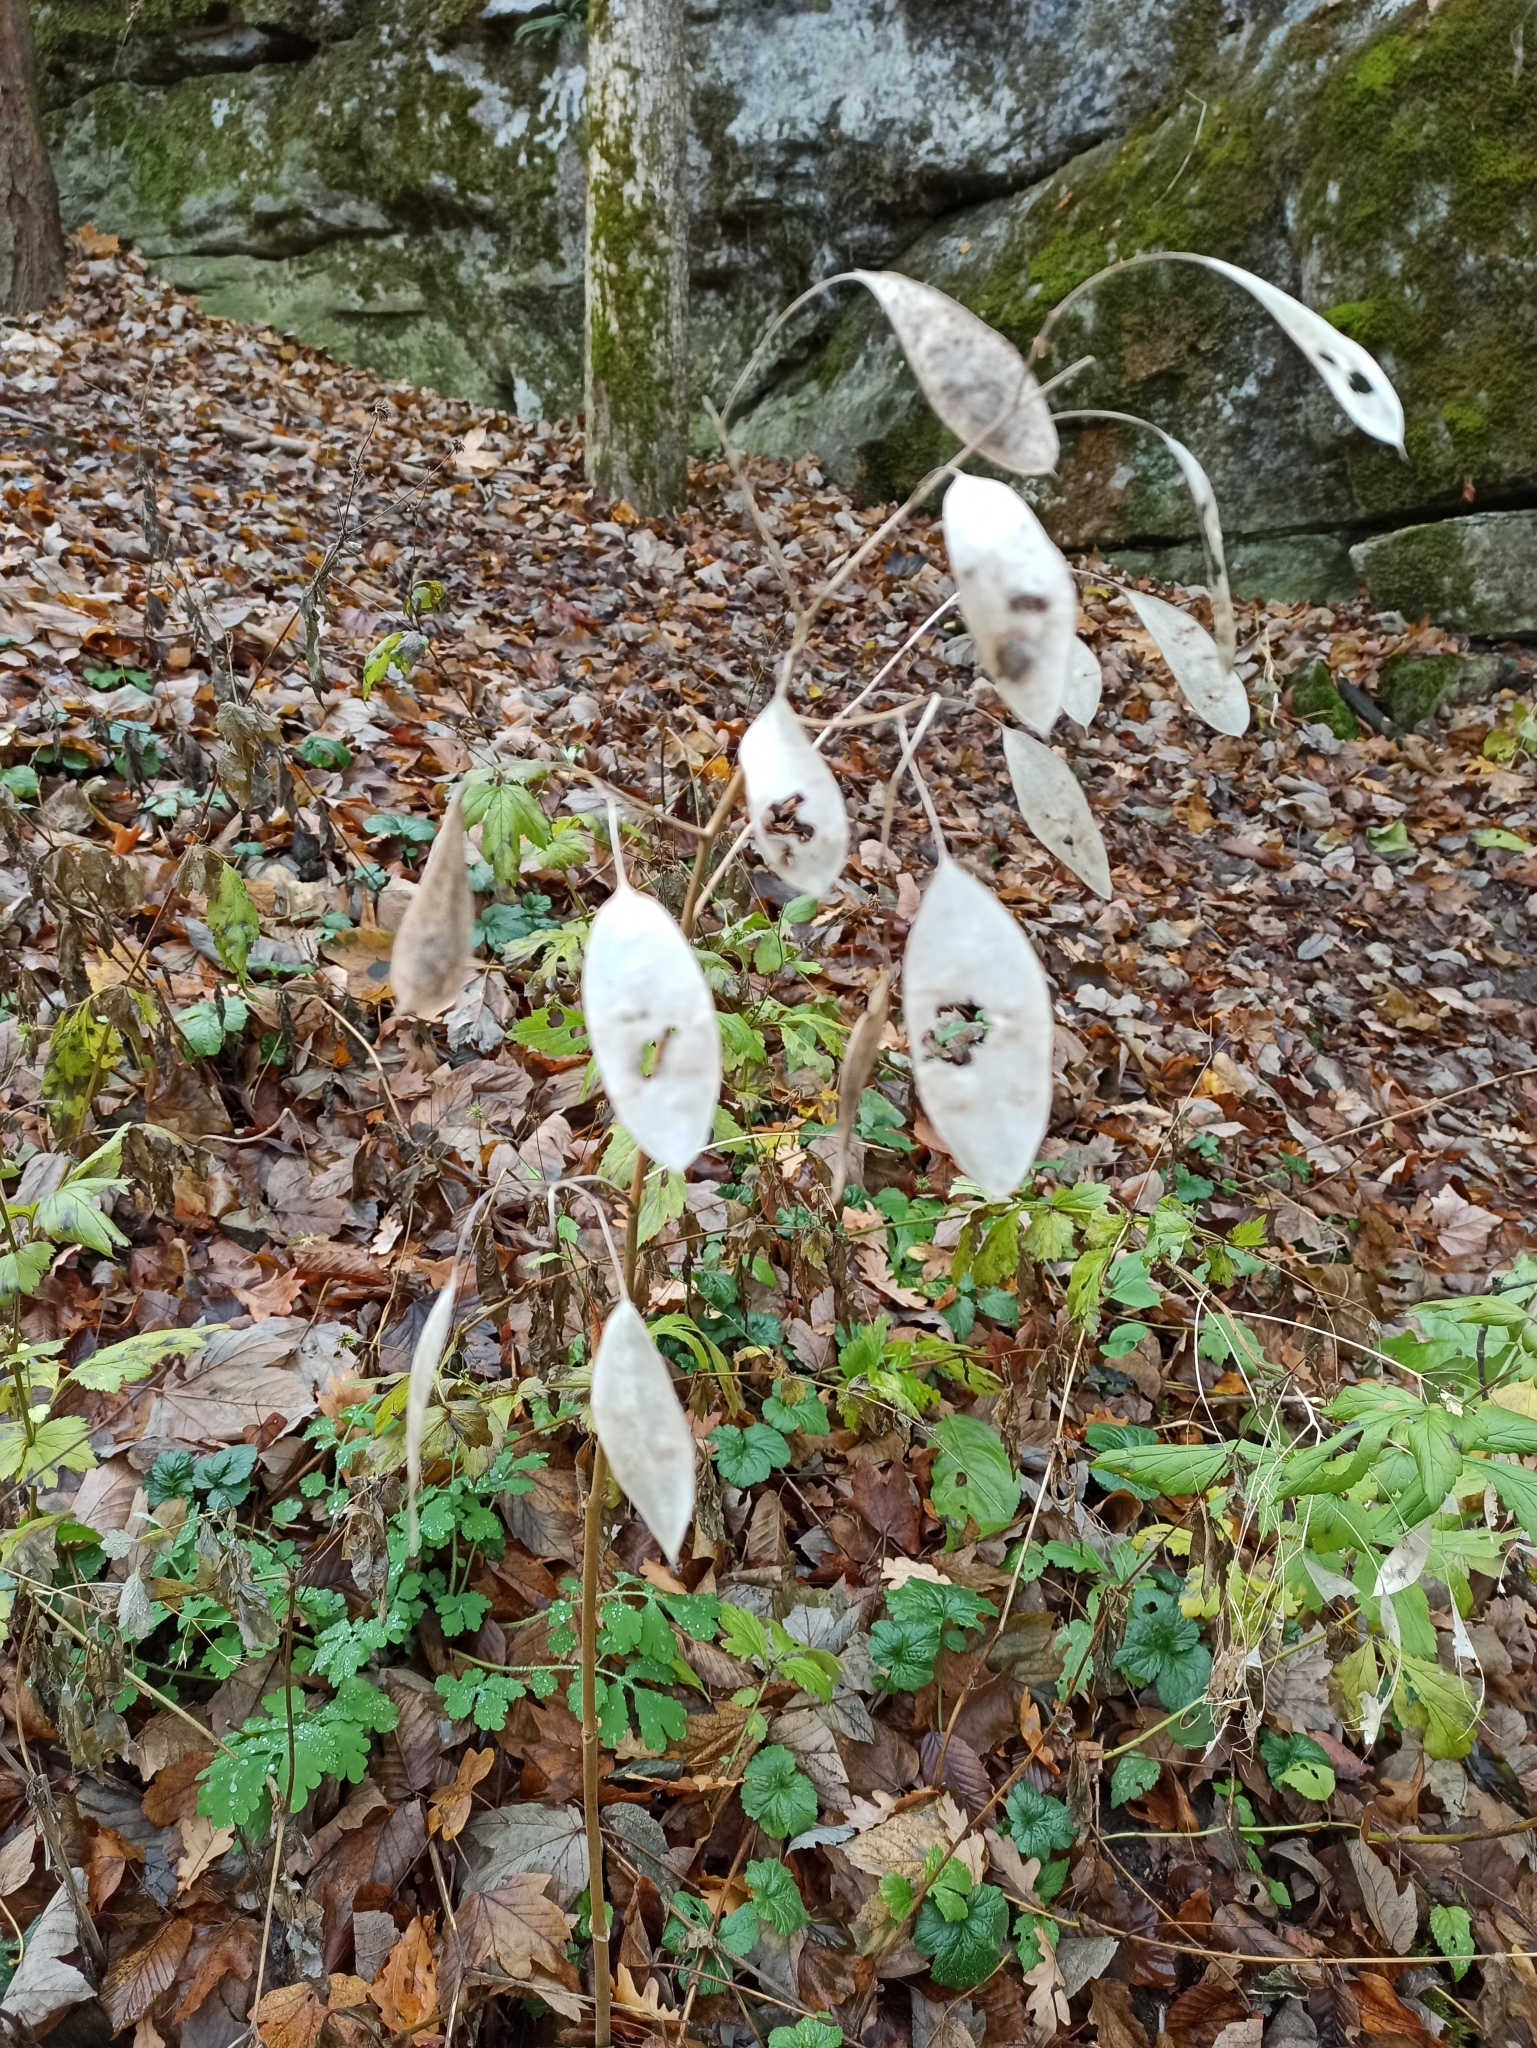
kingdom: Plantae
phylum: Tracheophyta
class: Magnoliopsida
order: Brassicales
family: Brassicaceae
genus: Lunaria
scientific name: Lunaria rediviva
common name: Perennial honesty
